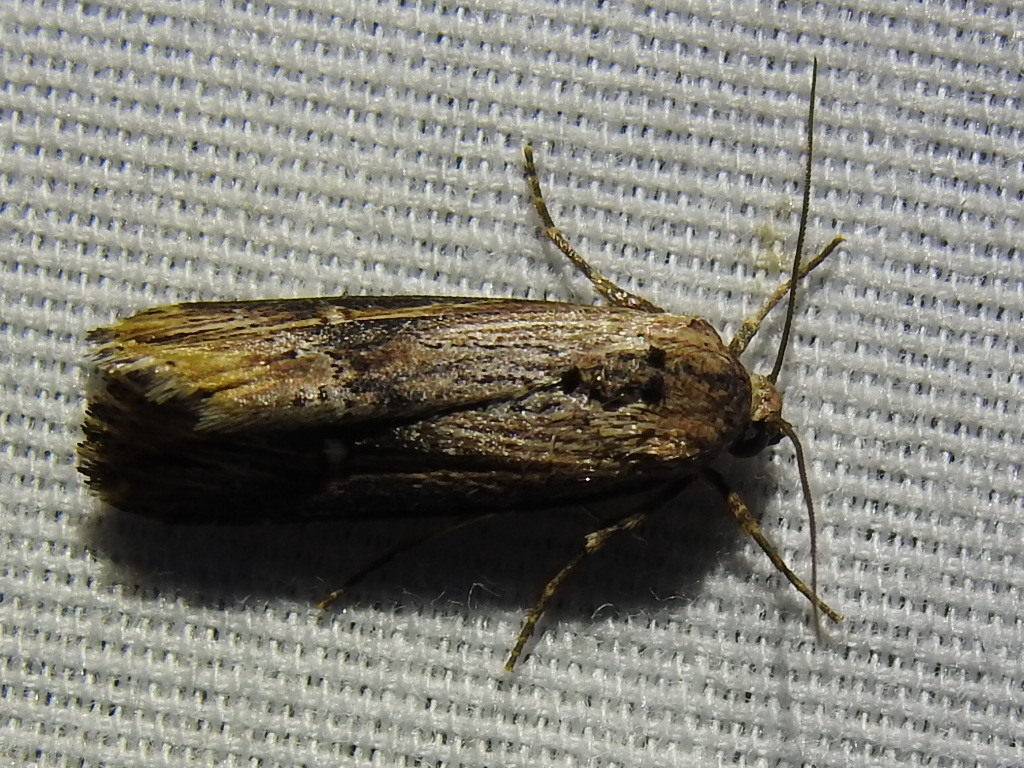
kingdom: Animalia
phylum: Arthropoda
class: Insecta
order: Lepidoptera
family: Noctuidae
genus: Crambodes
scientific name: Crambodes talidiformis
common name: Verbena moth
